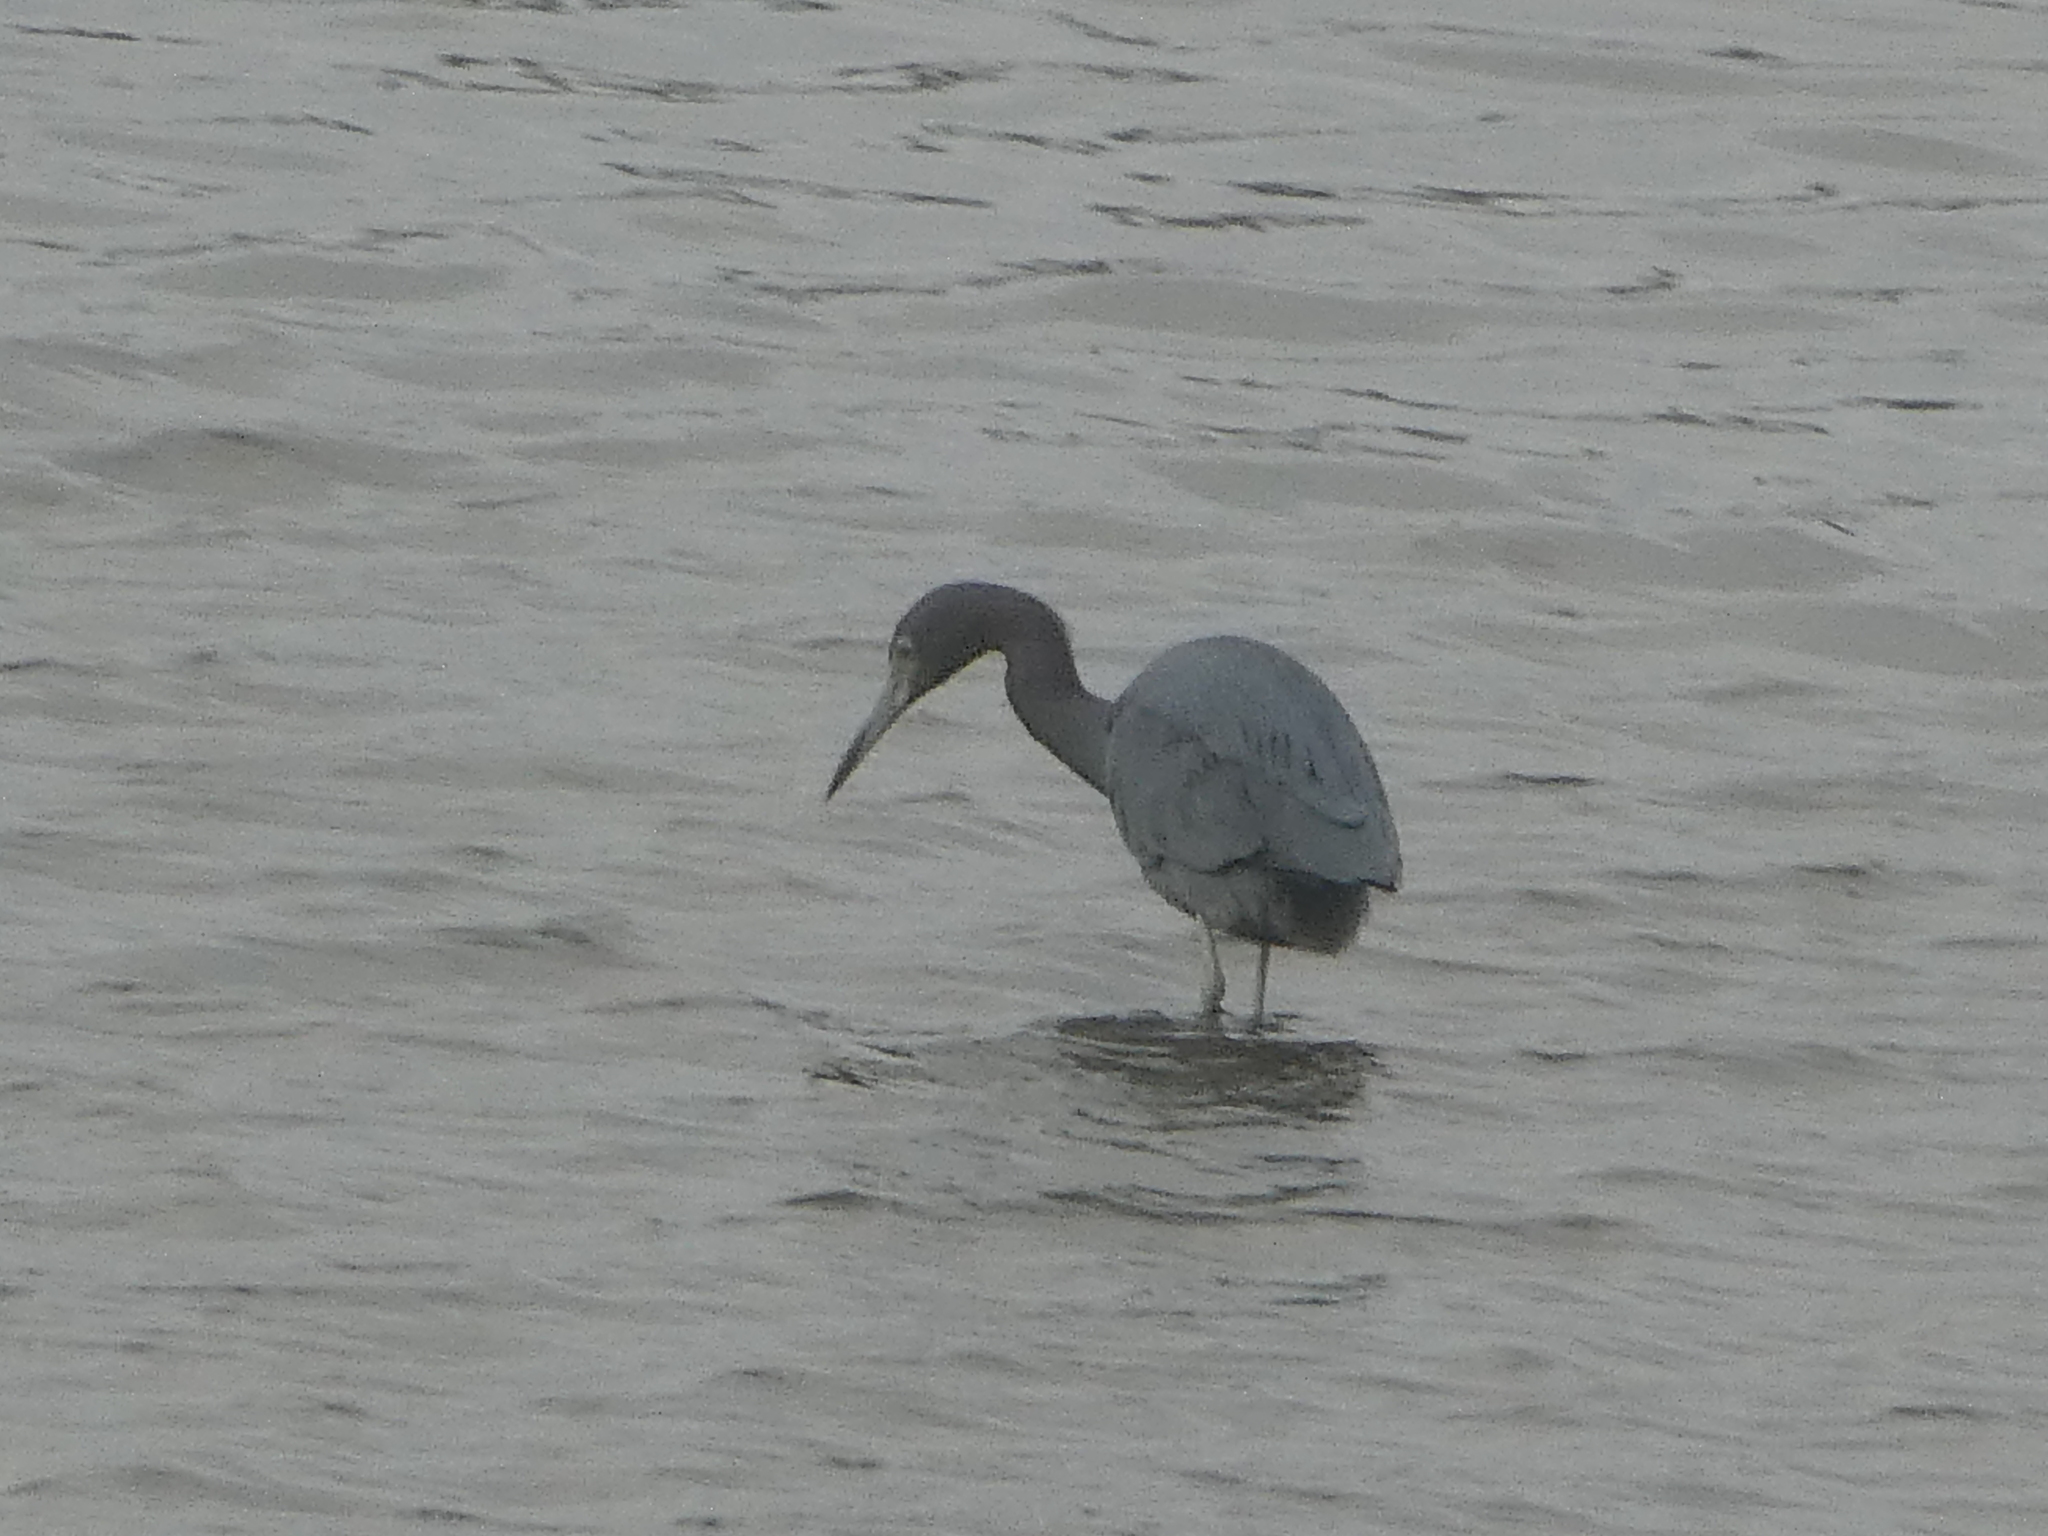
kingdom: Animalia
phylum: Chordata
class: Aves
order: Pelecaniformes
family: Ardeidae
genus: Egretta
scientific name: Egretta caerulea
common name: Little blue heron
